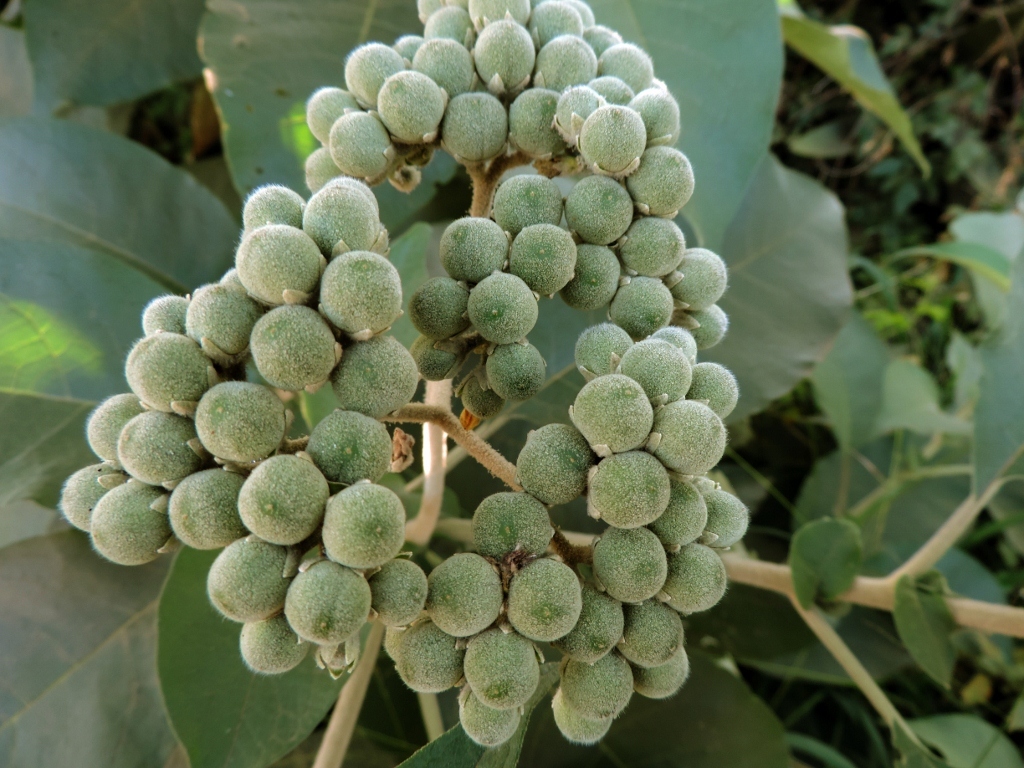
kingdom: Plantae
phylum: Tracheophyta
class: Magnoliopsida
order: Solanales
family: Solanaceae
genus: Solanum
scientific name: Solanum mauritianum
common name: Earleaf nightshade
